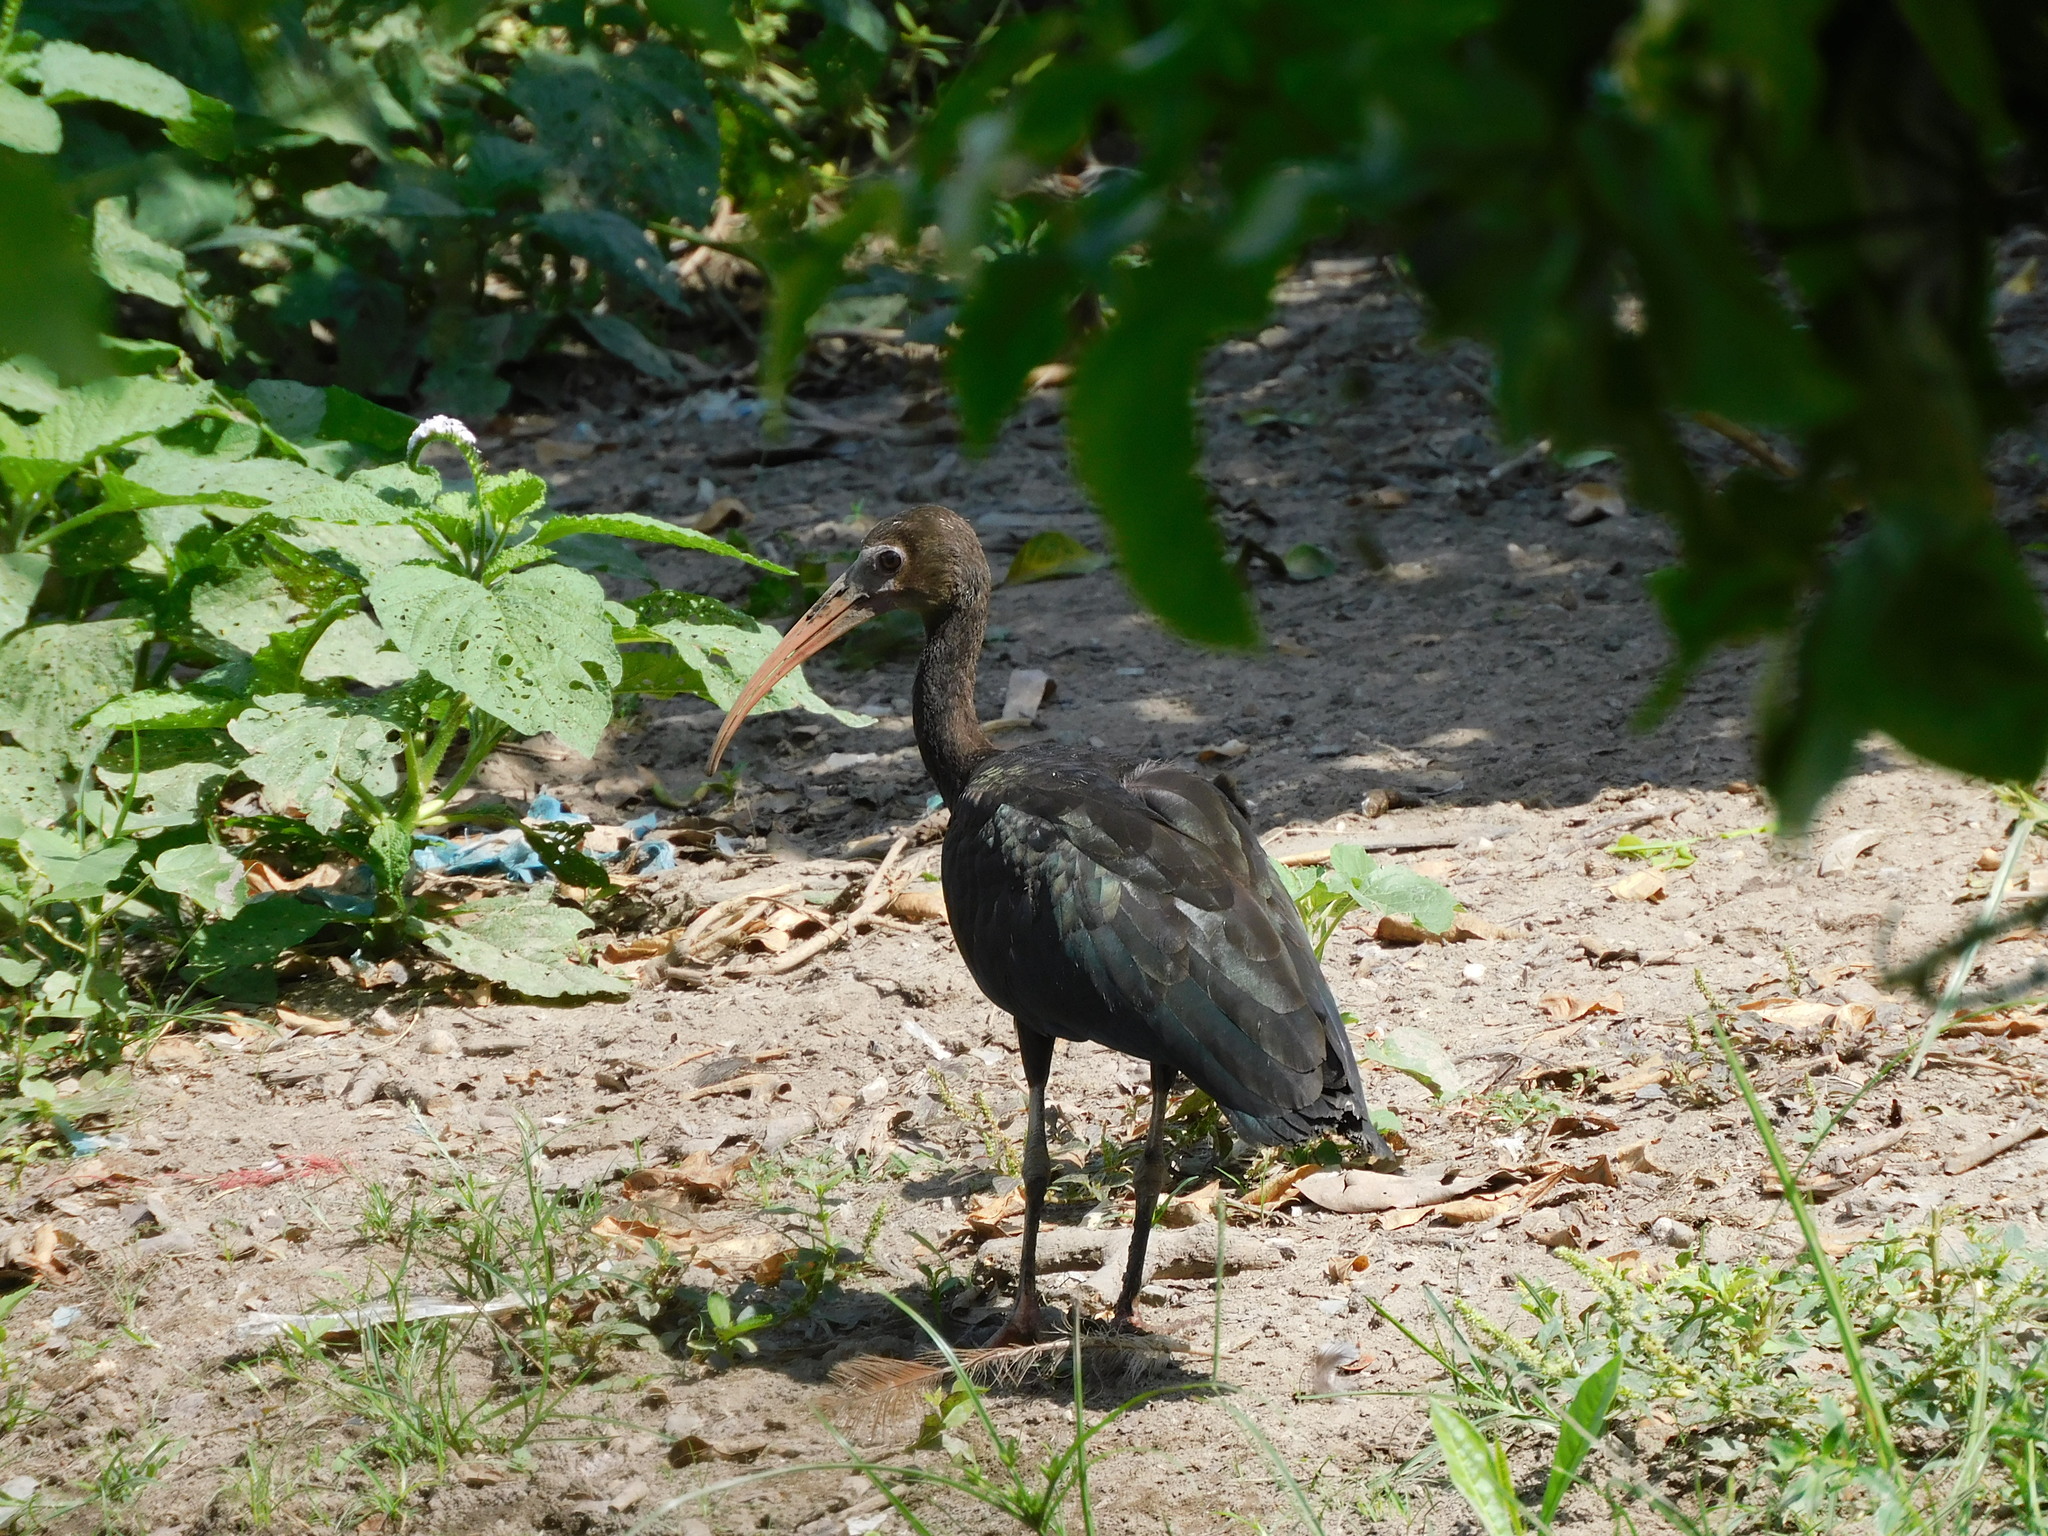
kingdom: Animalia
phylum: Chordata
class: Aves
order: Pelecaniformes
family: Threskiornithidae
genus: Phimosus
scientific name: Phimosus infuscatus
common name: Bare-faced ibis
